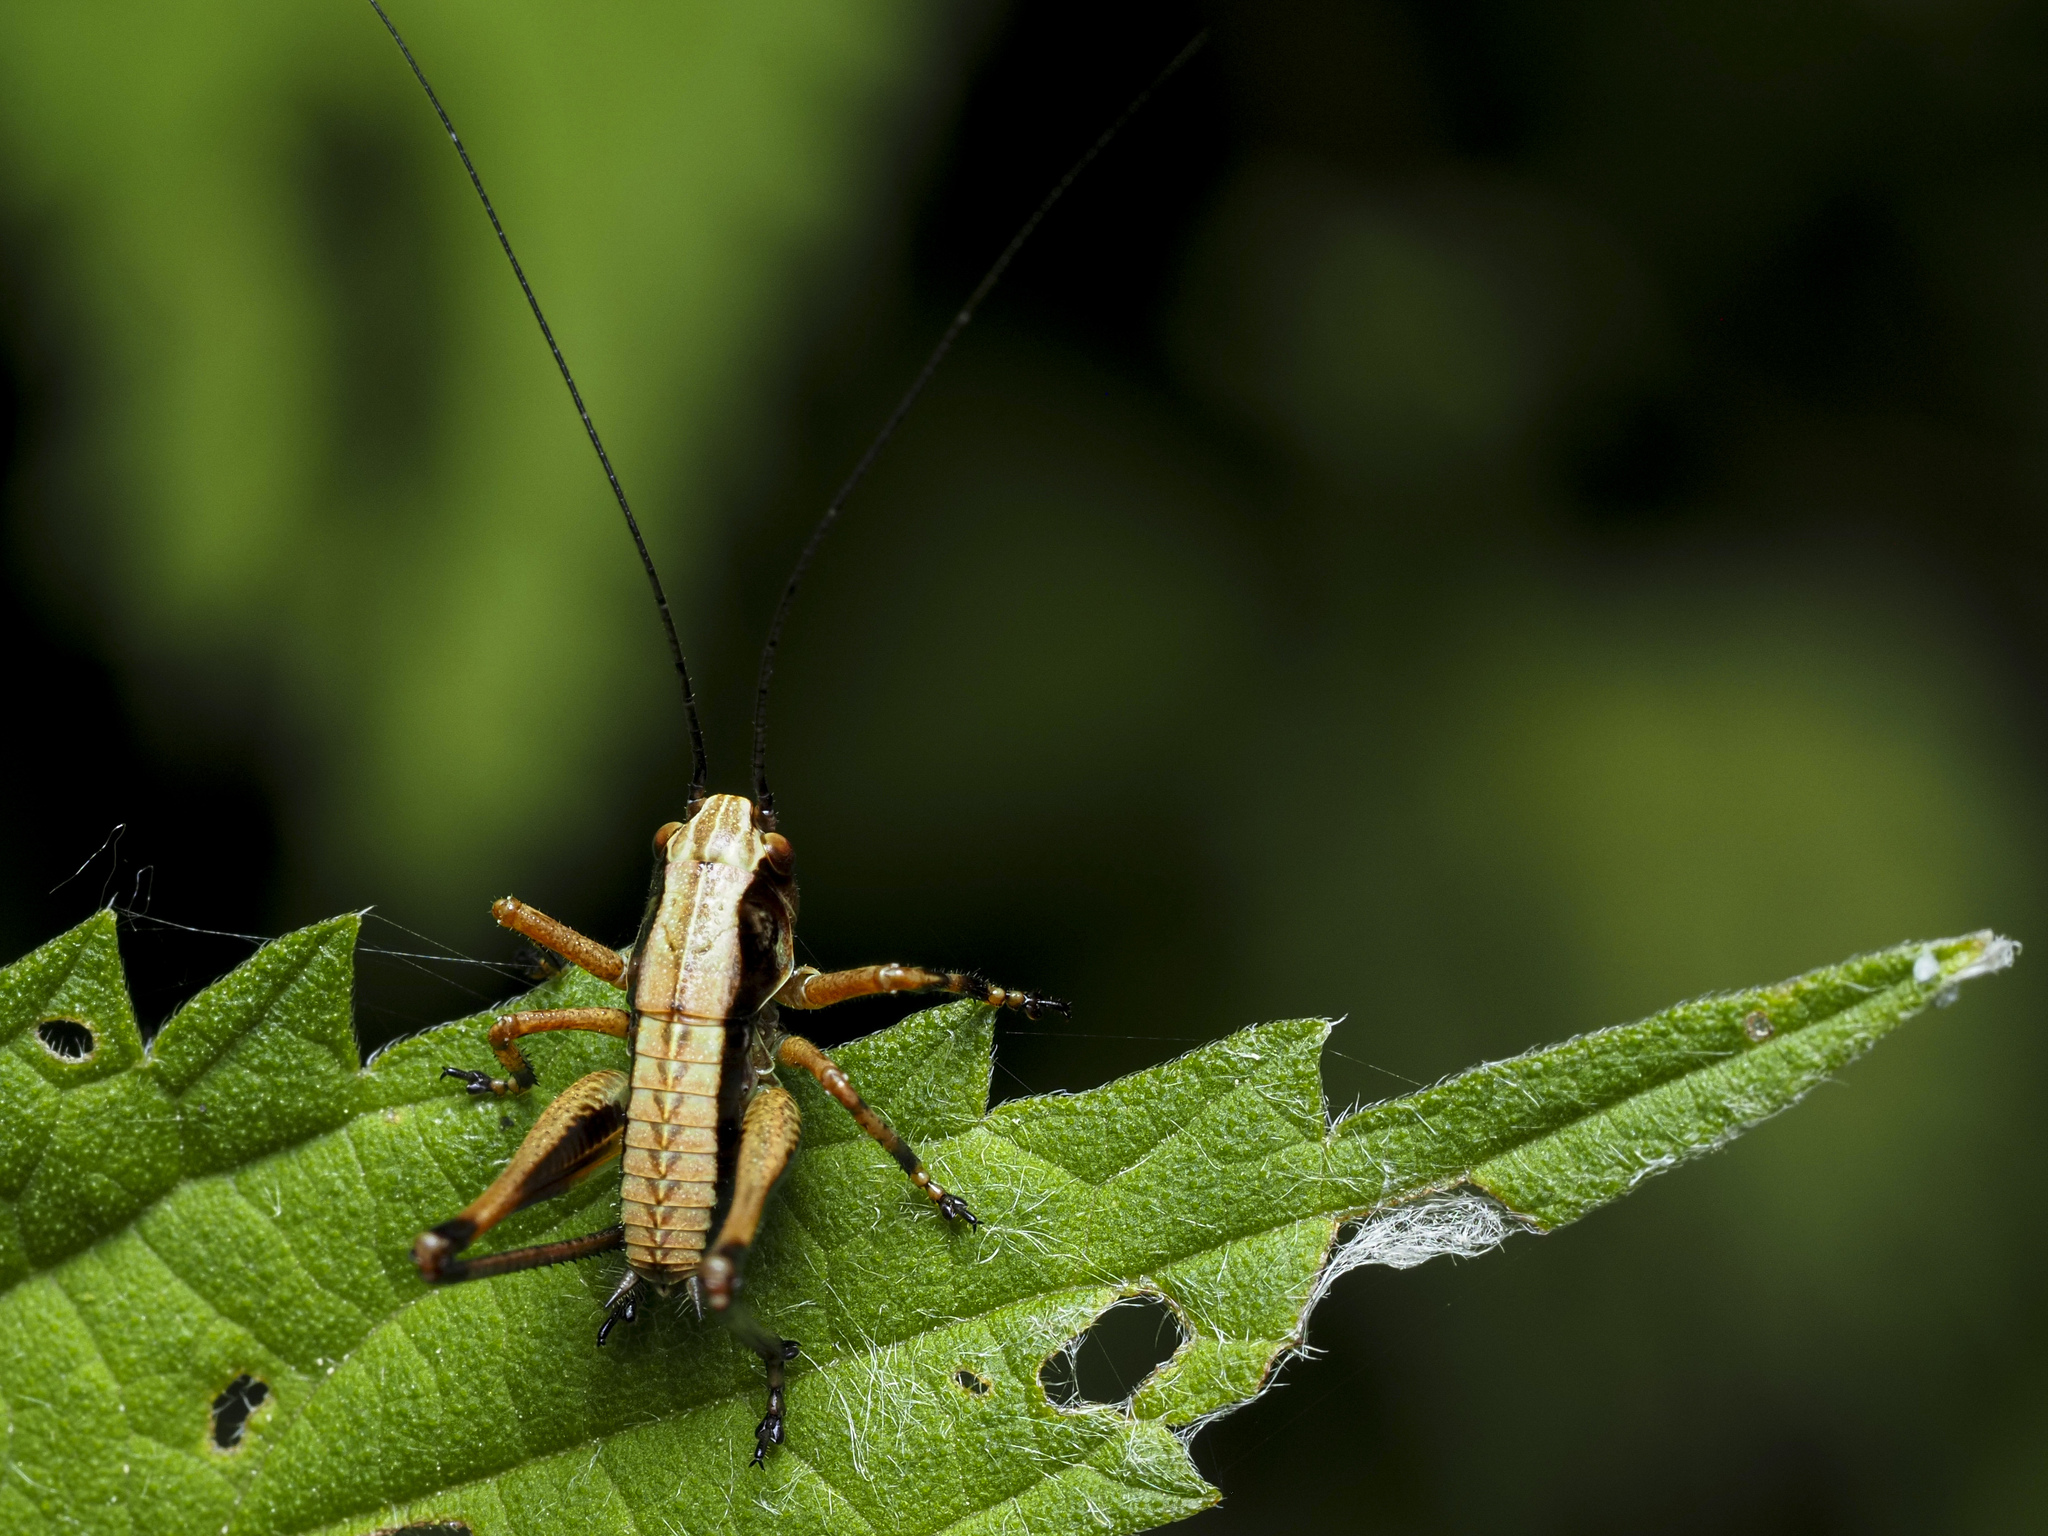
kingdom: Animalia
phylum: Arthropoda
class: Insecta
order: Orthoptera
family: Tettigoniidae
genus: Pholidoptera
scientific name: Pholidoptera griseoaptera
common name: Dark bush-cricket
